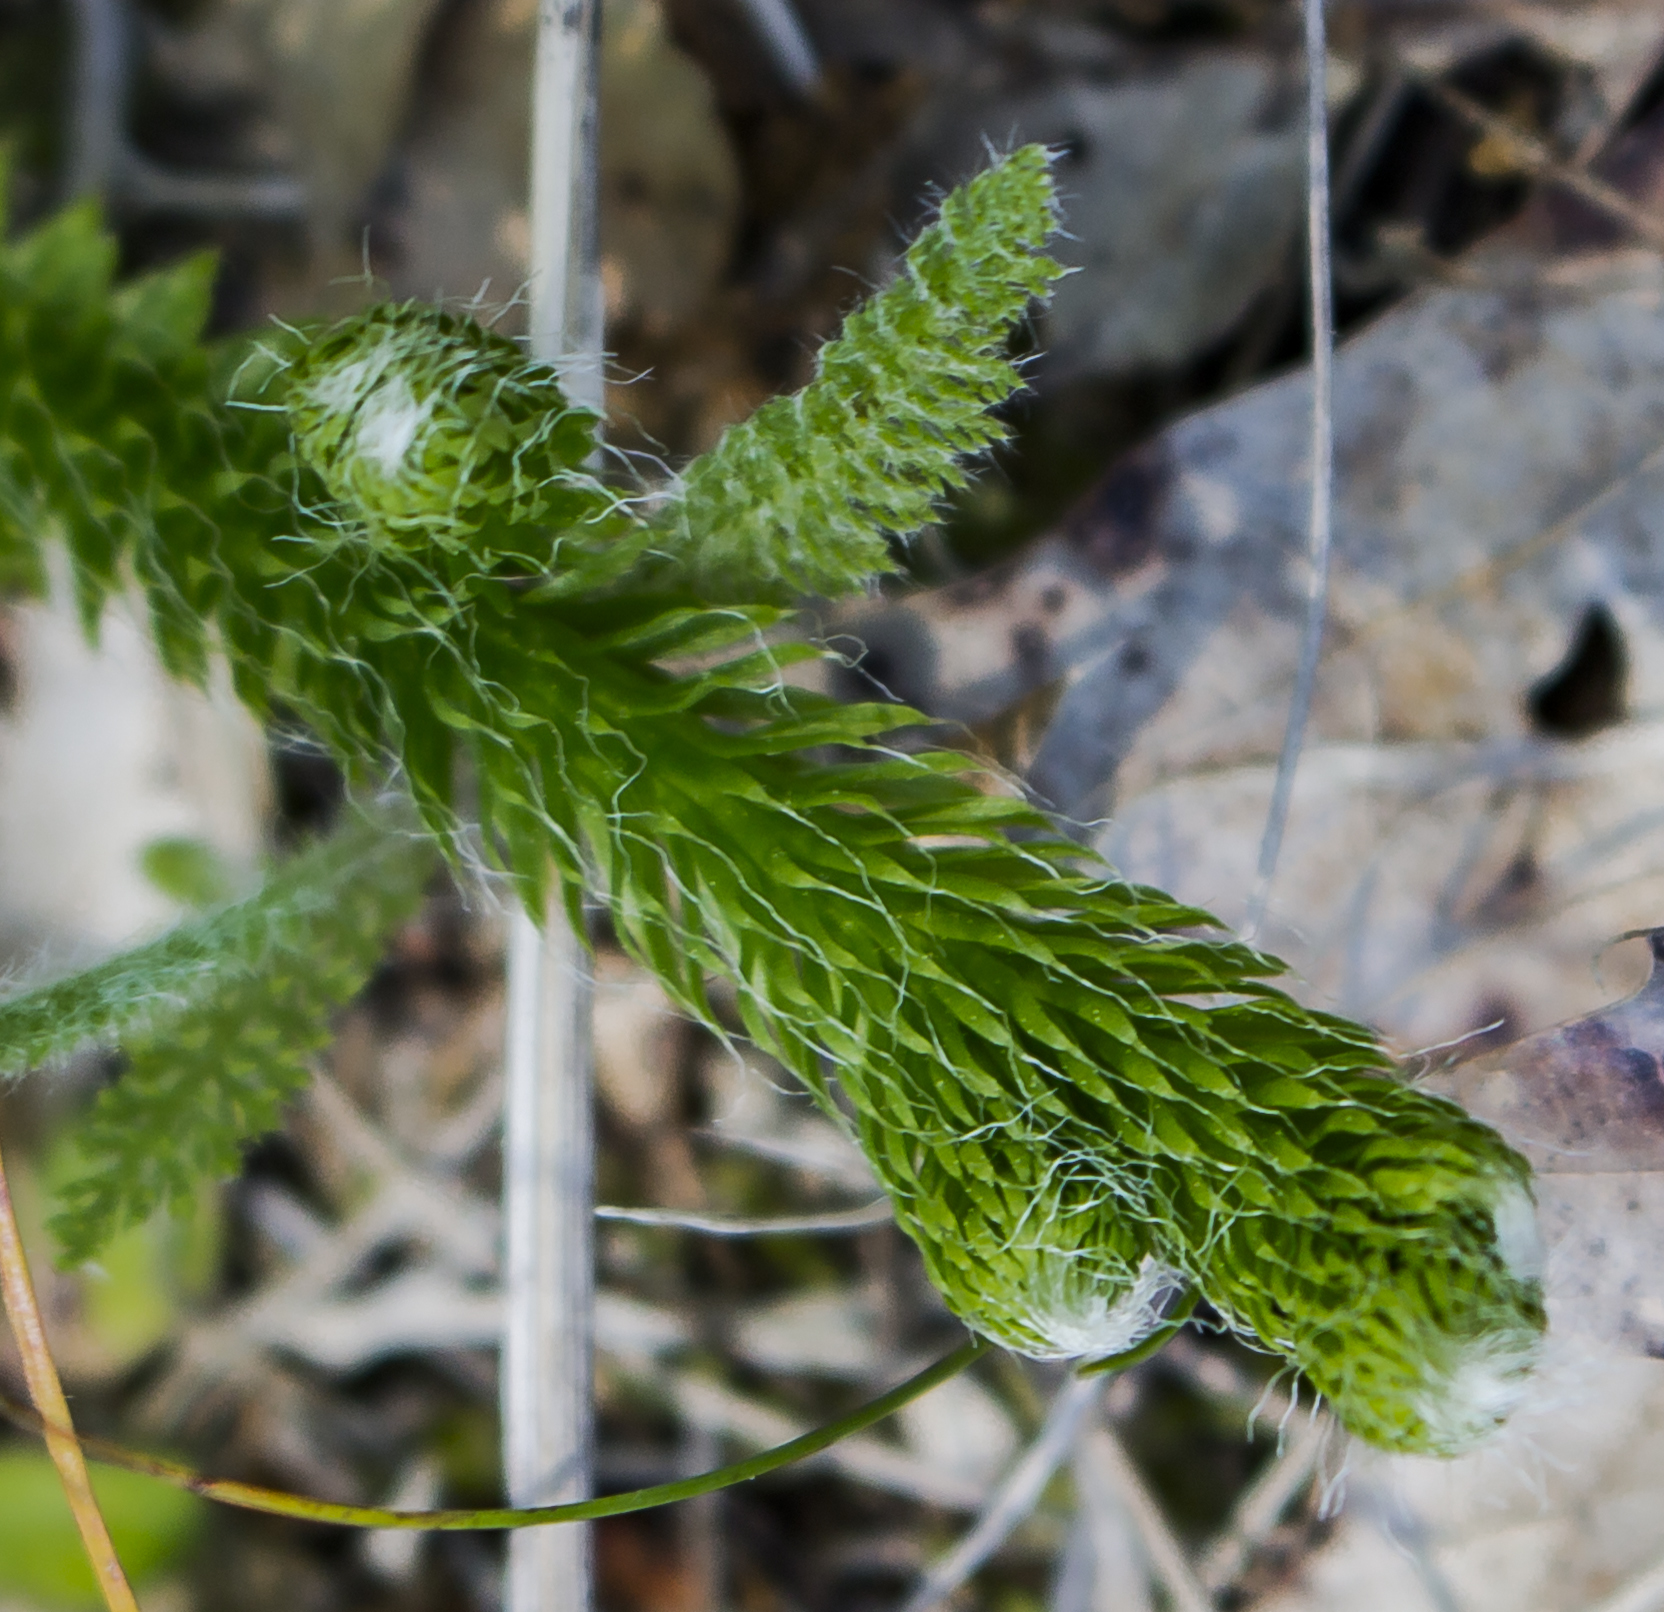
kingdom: Plantae
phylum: Tracheophyta
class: Lycopodiopsida
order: Lycopodiales
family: Lycopodiaceae
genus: Lycopodium
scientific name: Lycopodium clavatum
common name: Stag's-horn clubmoss
